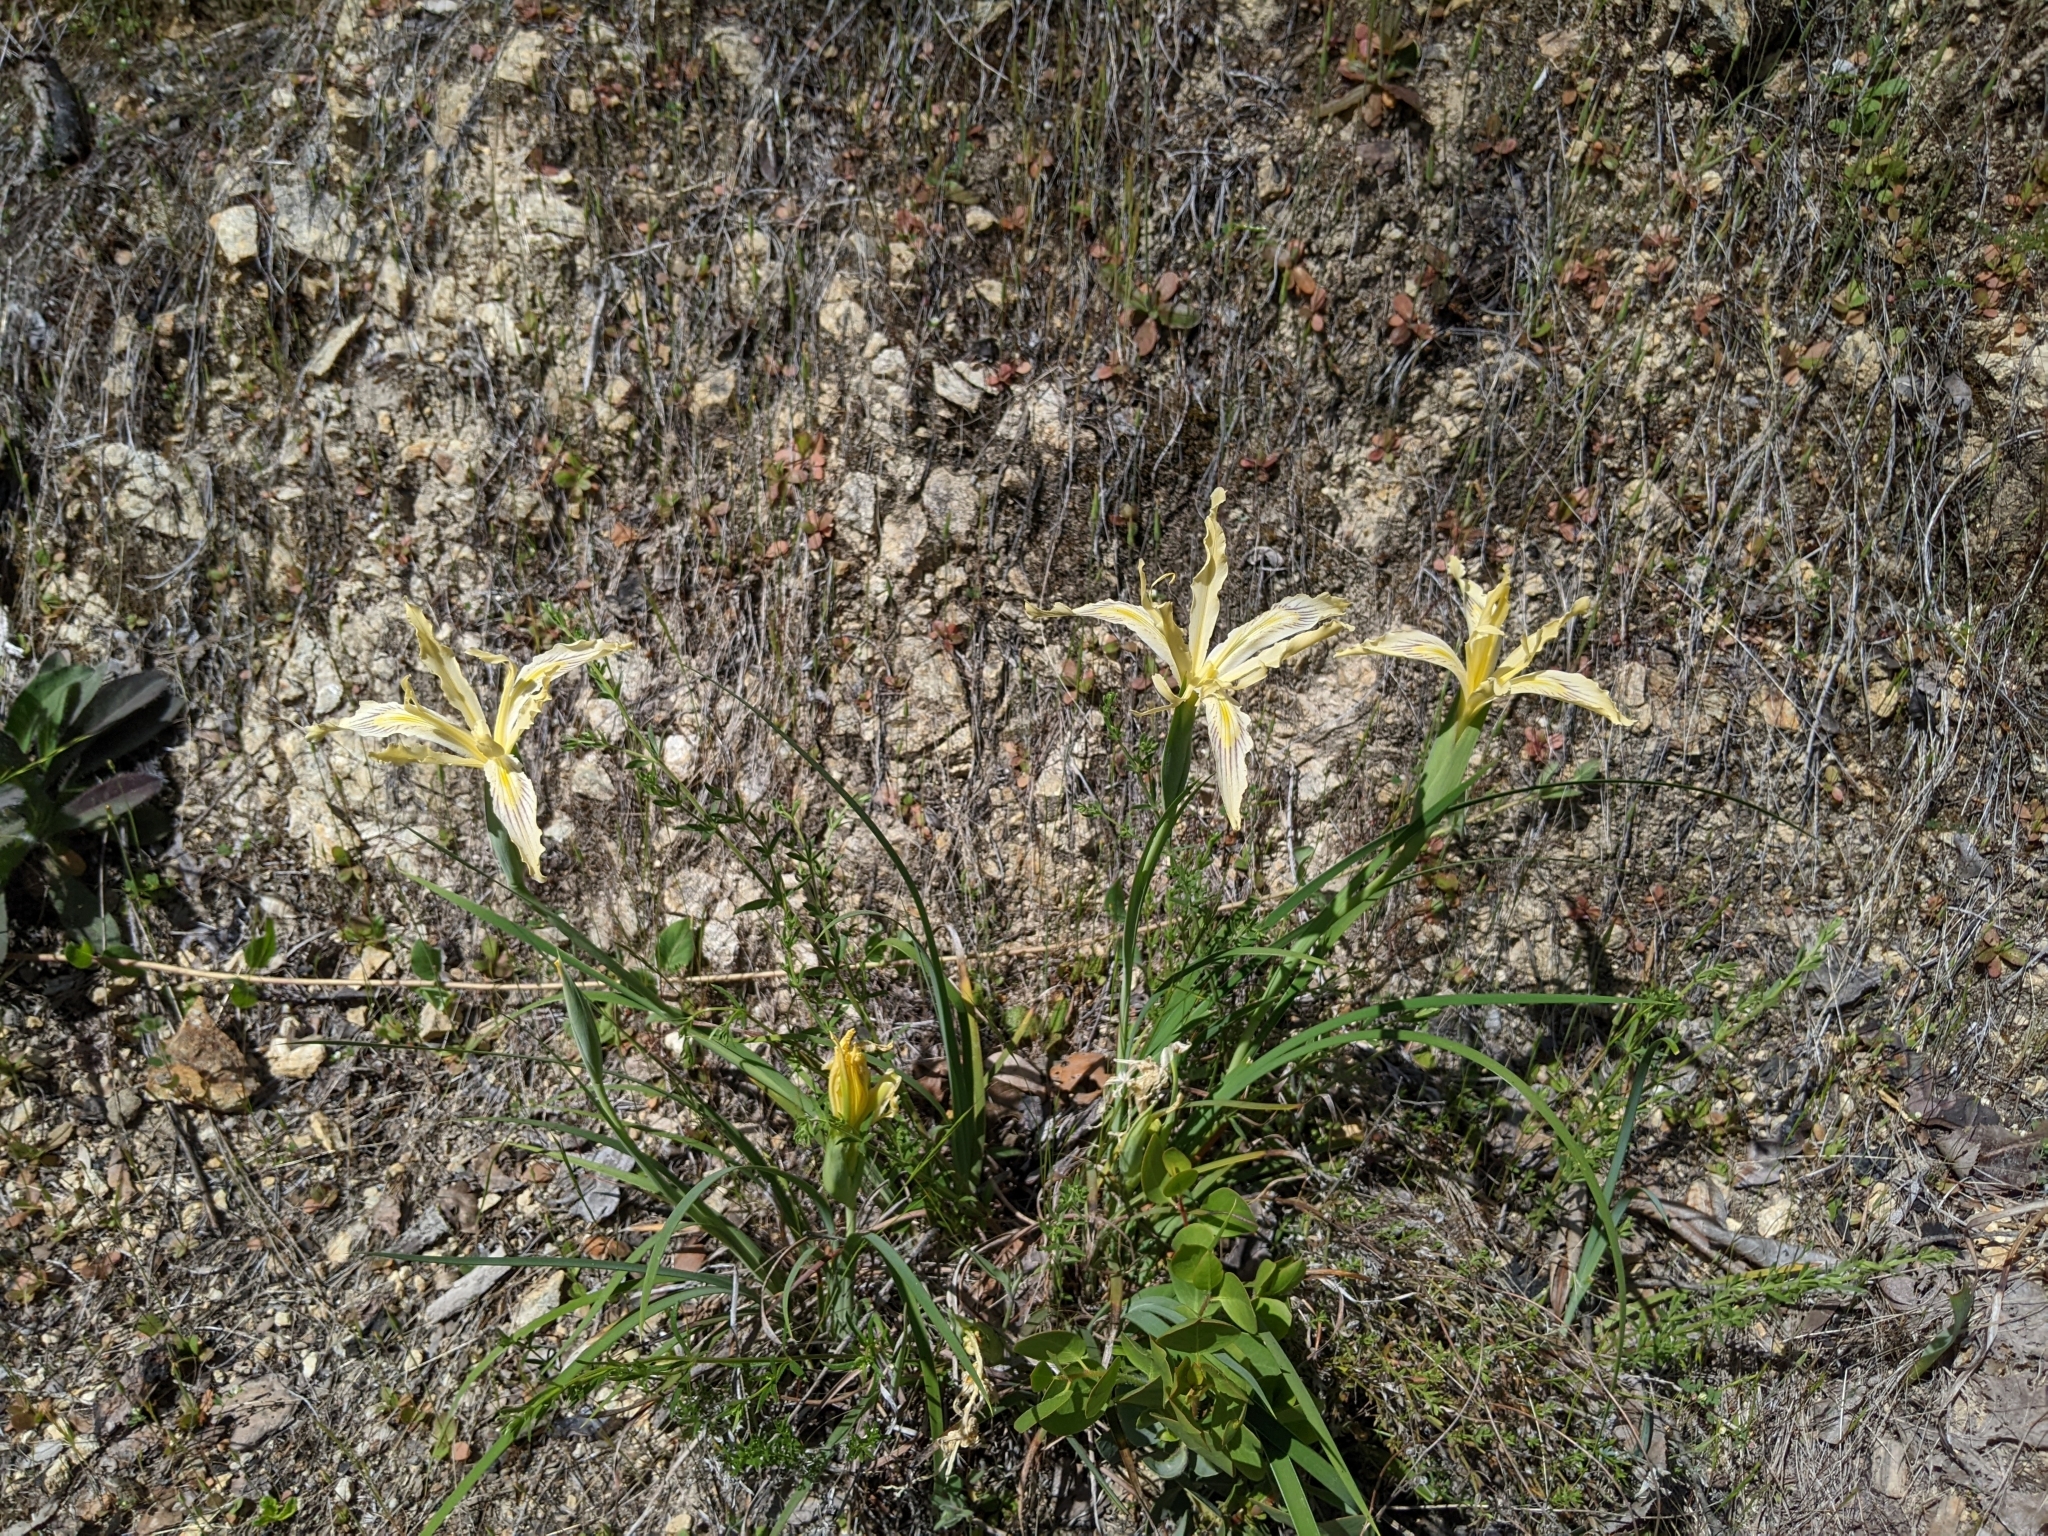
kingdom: Plantae
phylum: Tracheophyta
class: Liliopsida
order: Asparagales
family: Iridaceae
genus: Iris
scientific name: Iris tenuissima
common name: Long-tube iris
